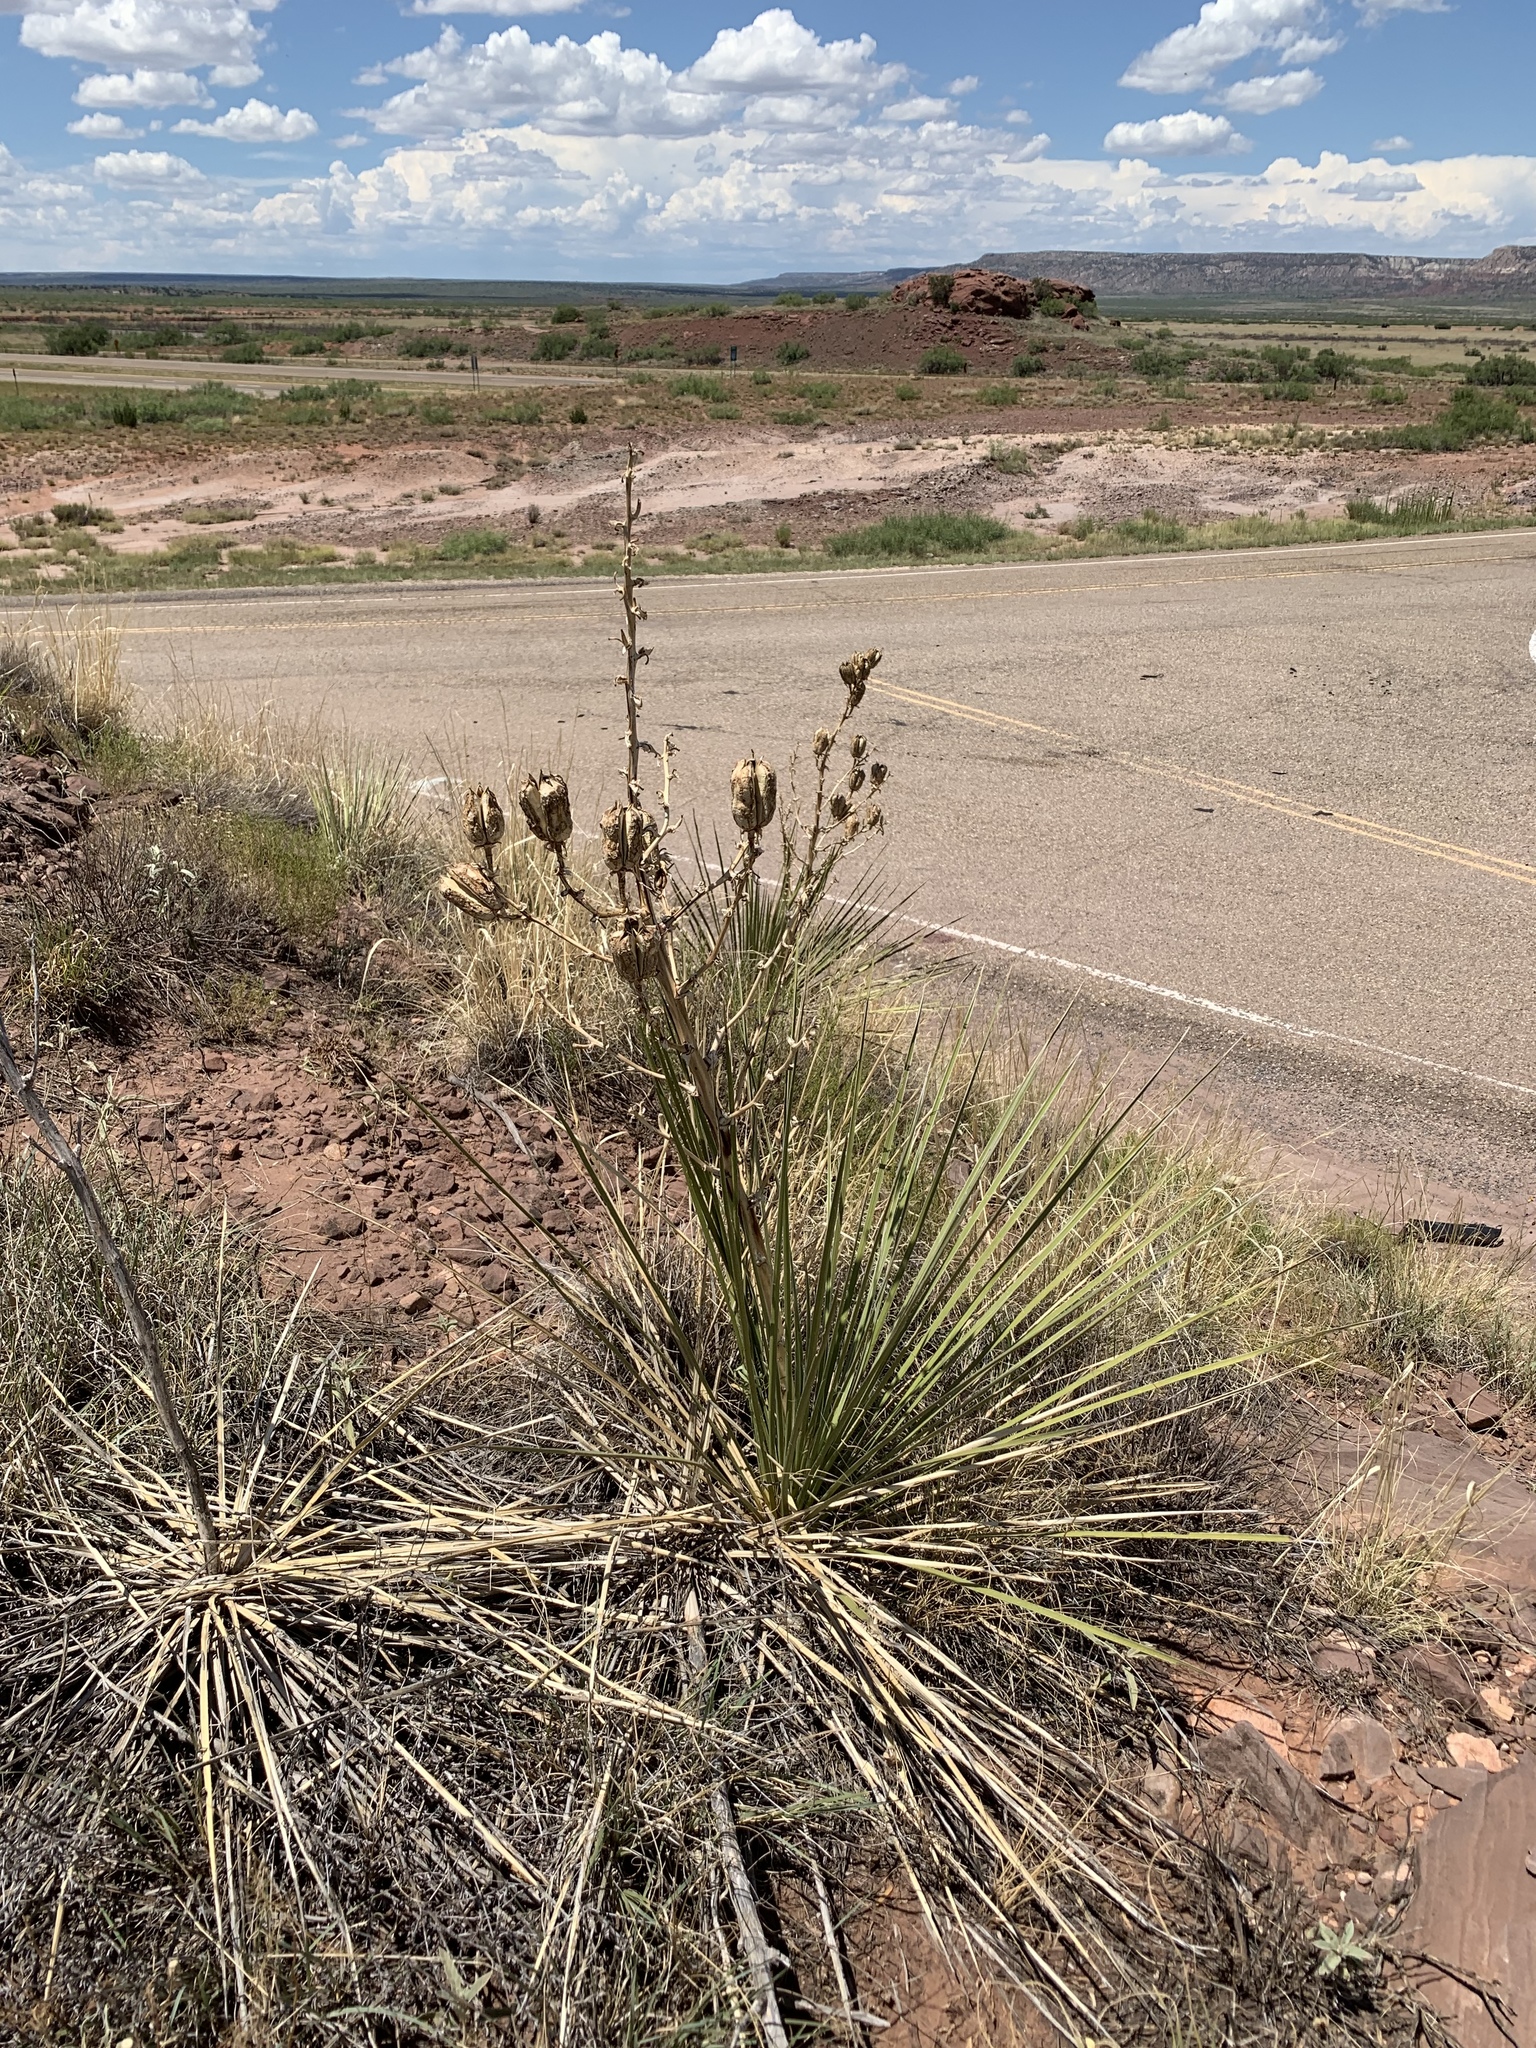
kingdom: Plantae
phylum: Tracheophyta
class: Liliopsida
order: Asparagales
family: Asparagaceae
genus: Yucca
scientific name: Yucca campestris
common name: Plains yucca
